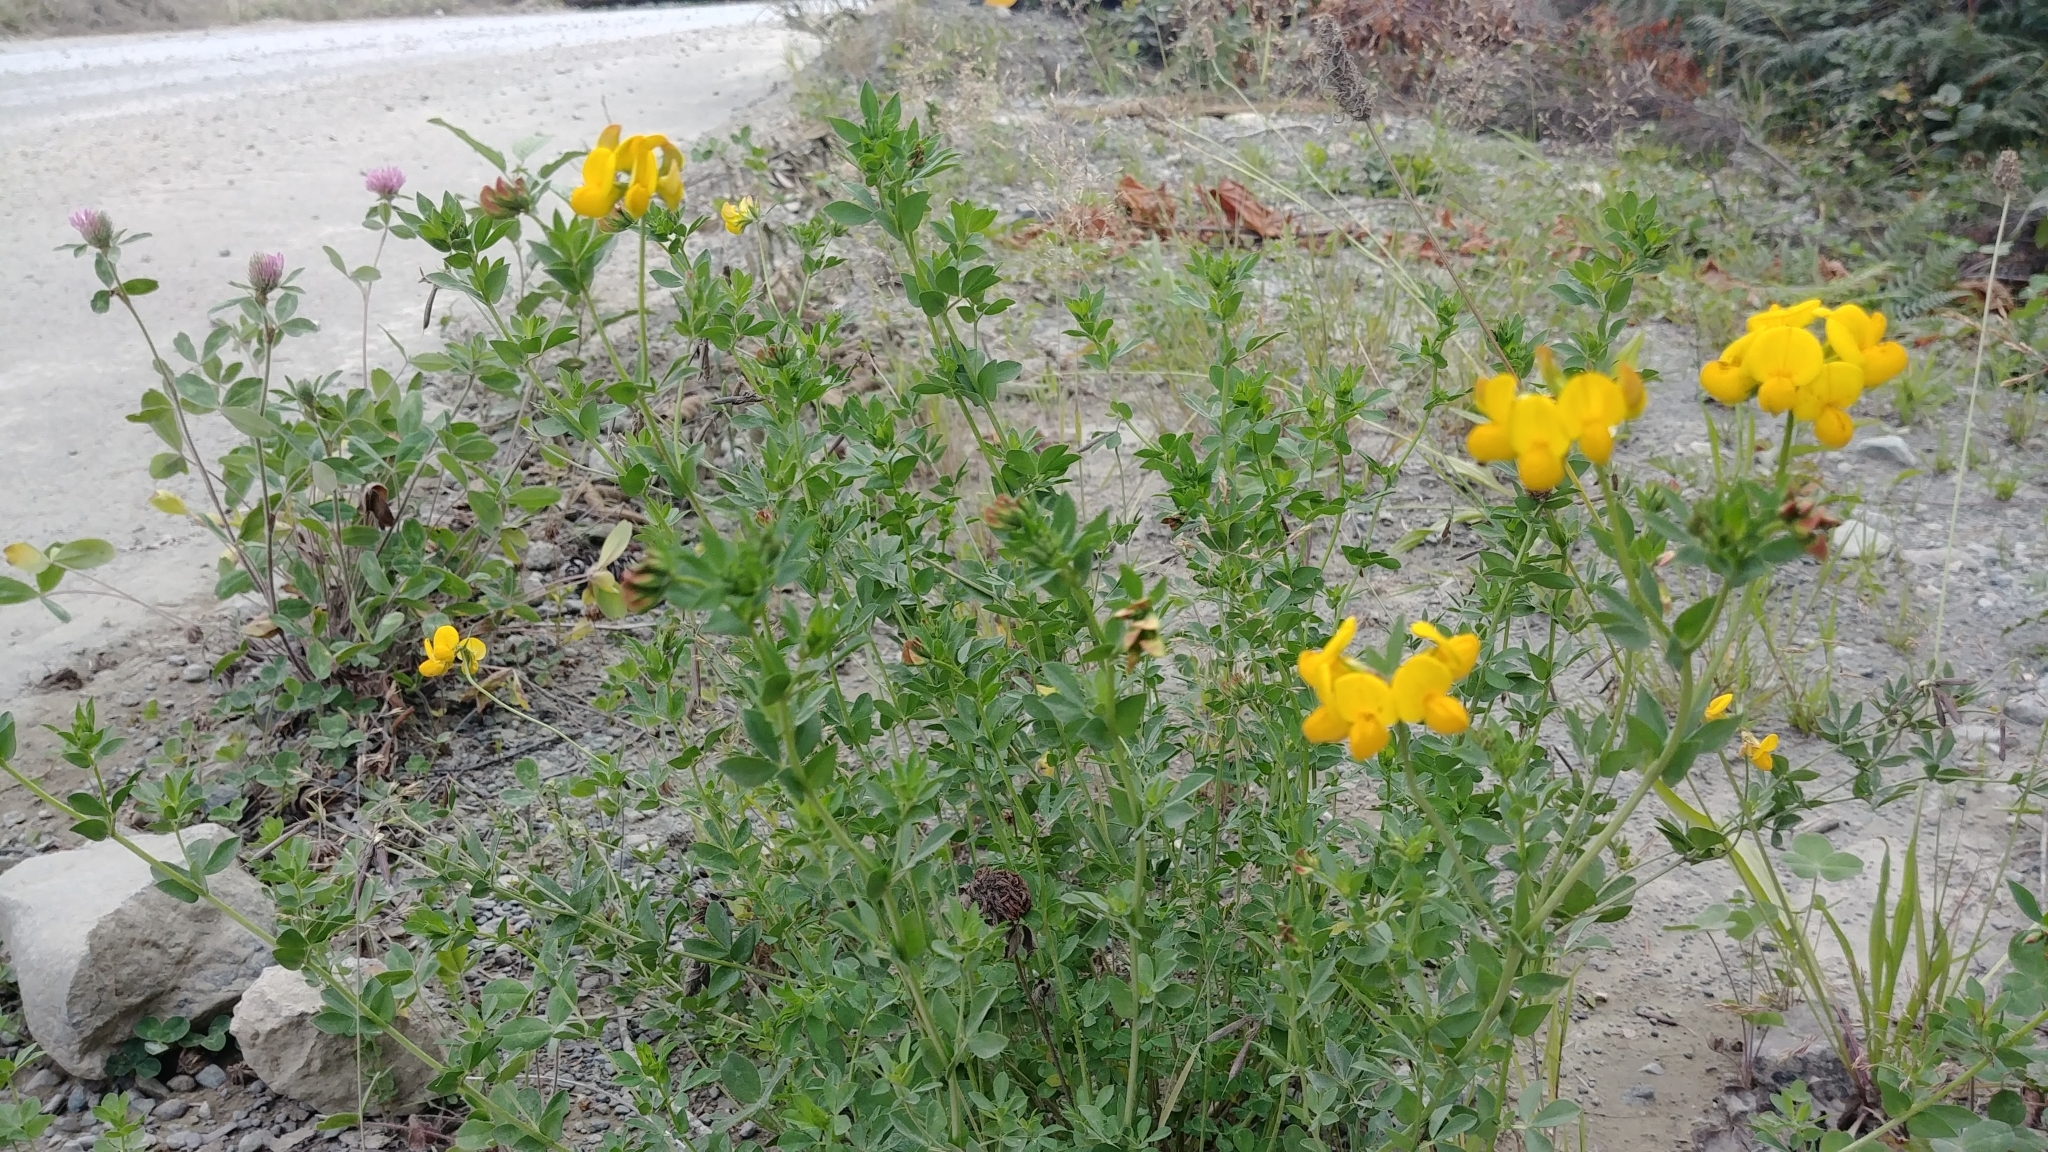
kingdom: Plantae
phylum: Tracheophyta
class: Magnoliopsida
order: Fabales
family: Fabaceae
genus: Lotus
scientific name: Lotus corniculatus
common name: Common bird's-foot-trefoil
